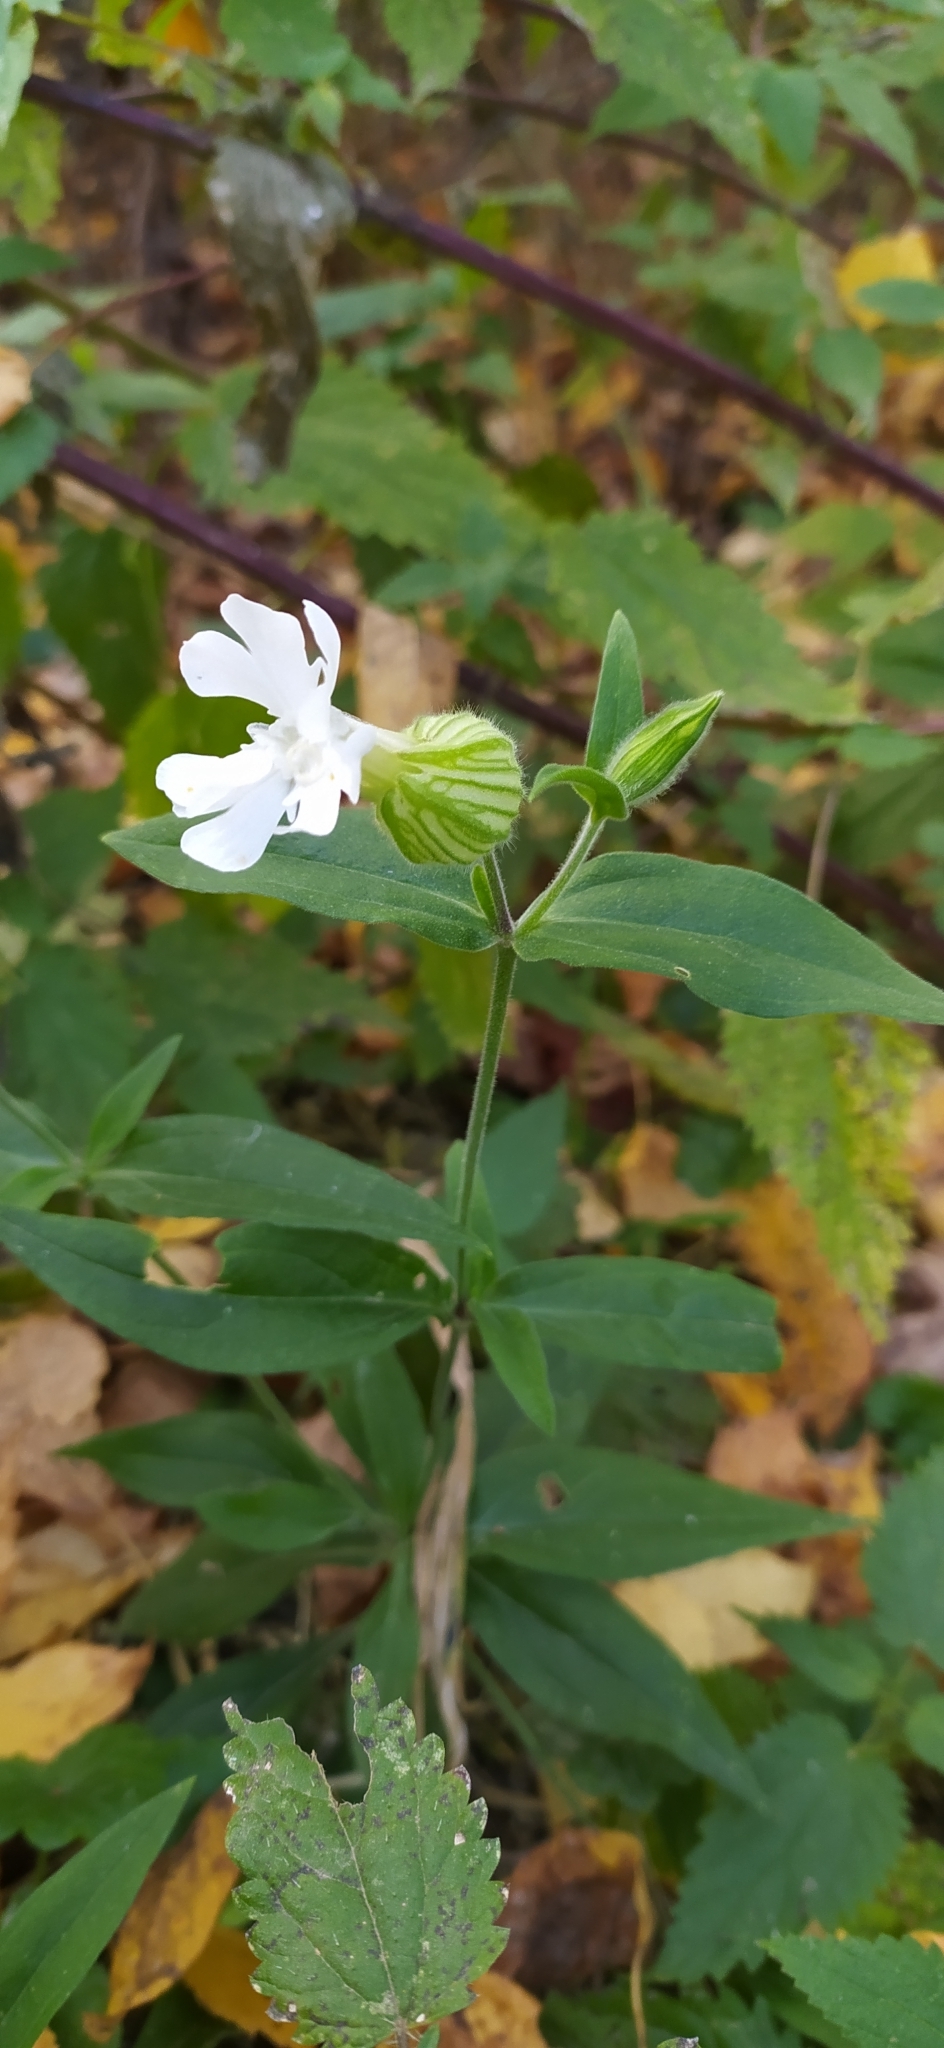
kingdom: Plantae
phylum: Tracheophyta
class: Magnoliopsida
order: Caryophyllales
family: Caryophyllaceae
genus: Silene
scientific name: Silene latifolia
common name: White campion
